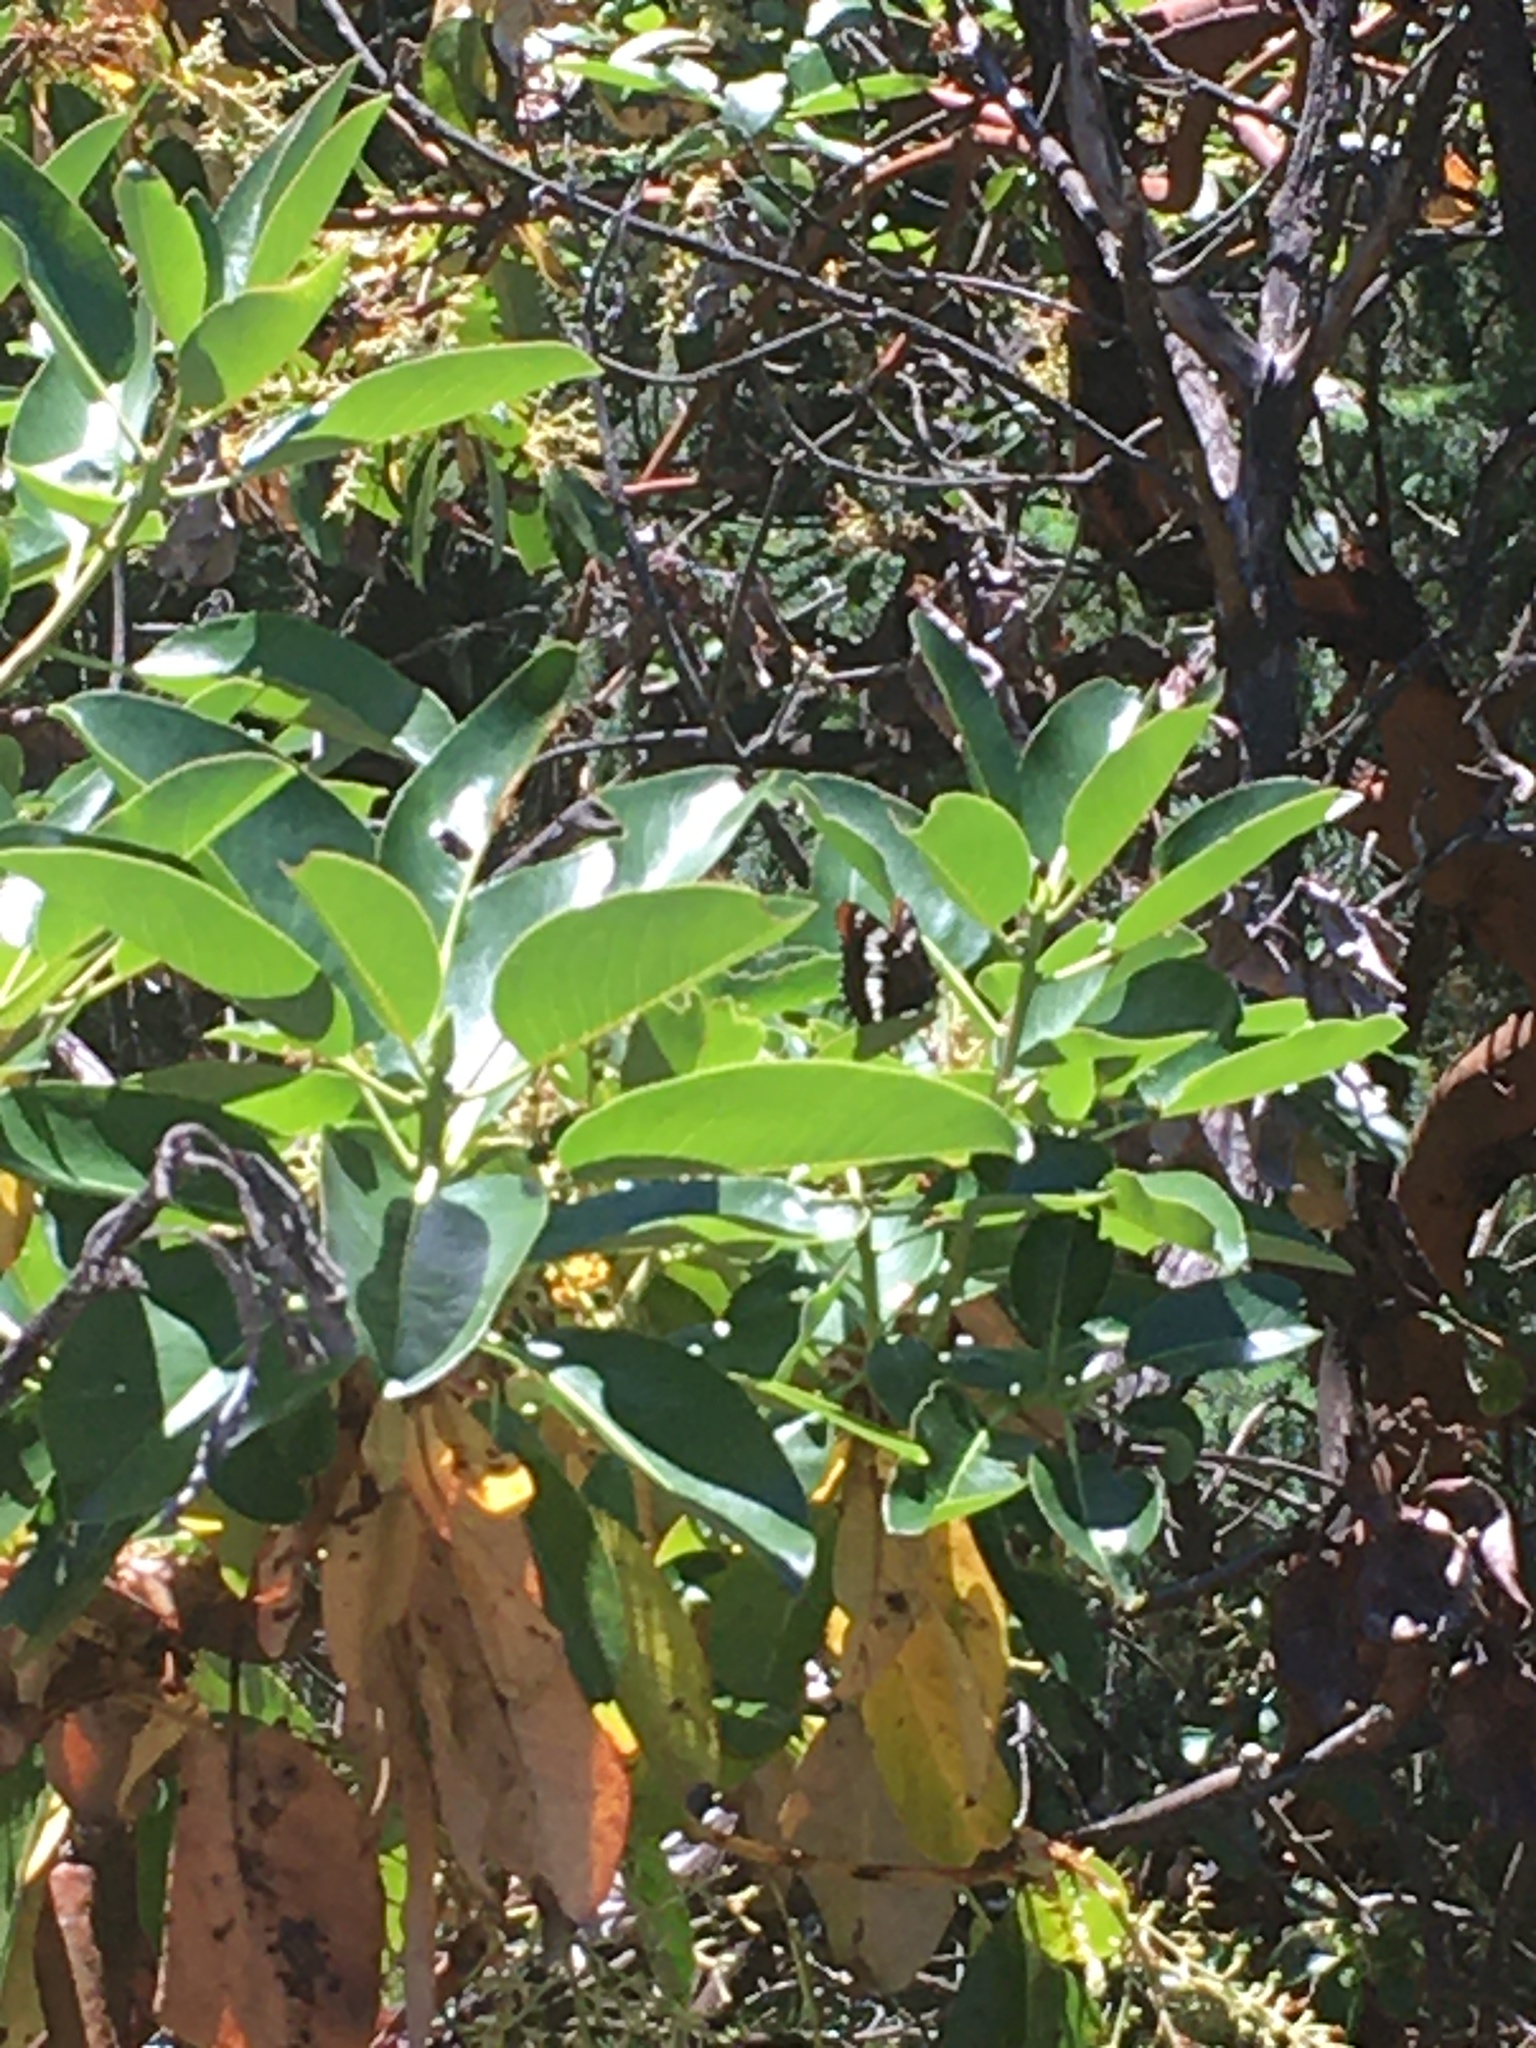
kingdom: Animalia
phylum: Arthropoda
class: Insecta
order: Lepidoptera
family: Nymphalidae
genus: Limenitis
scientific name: Limenitis lorquini
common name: Lorquin's admiral
